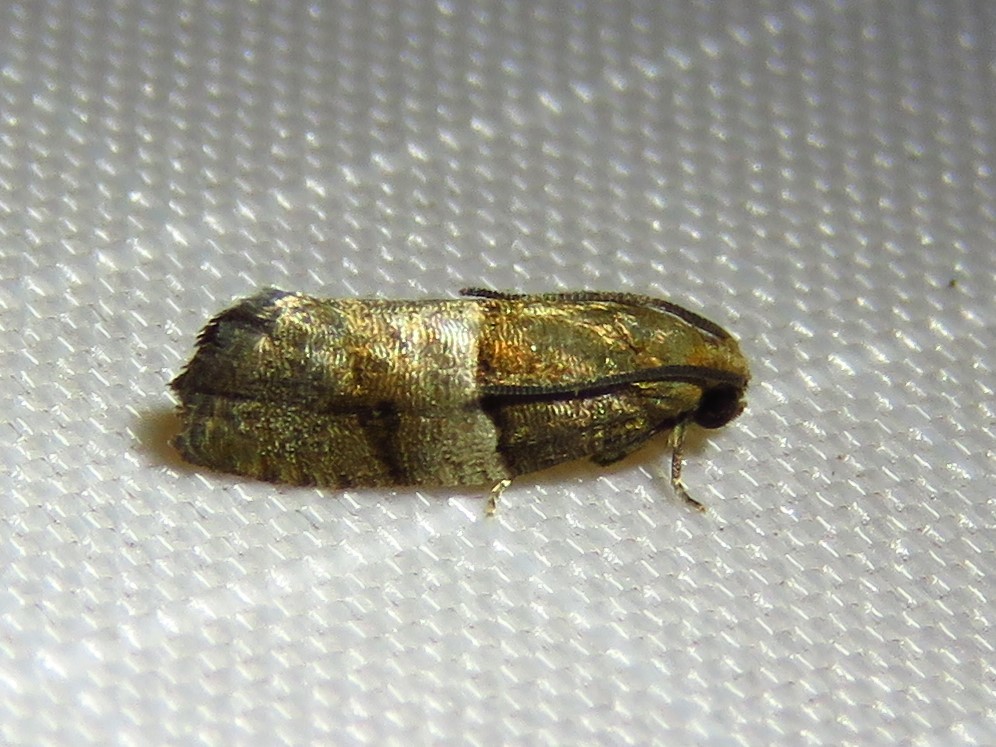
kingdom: Animalia
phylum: Arthropoda
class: Insecta
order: Lepidoptera
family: Tortricidae
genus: Larisa
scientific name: Larisa subsolana
